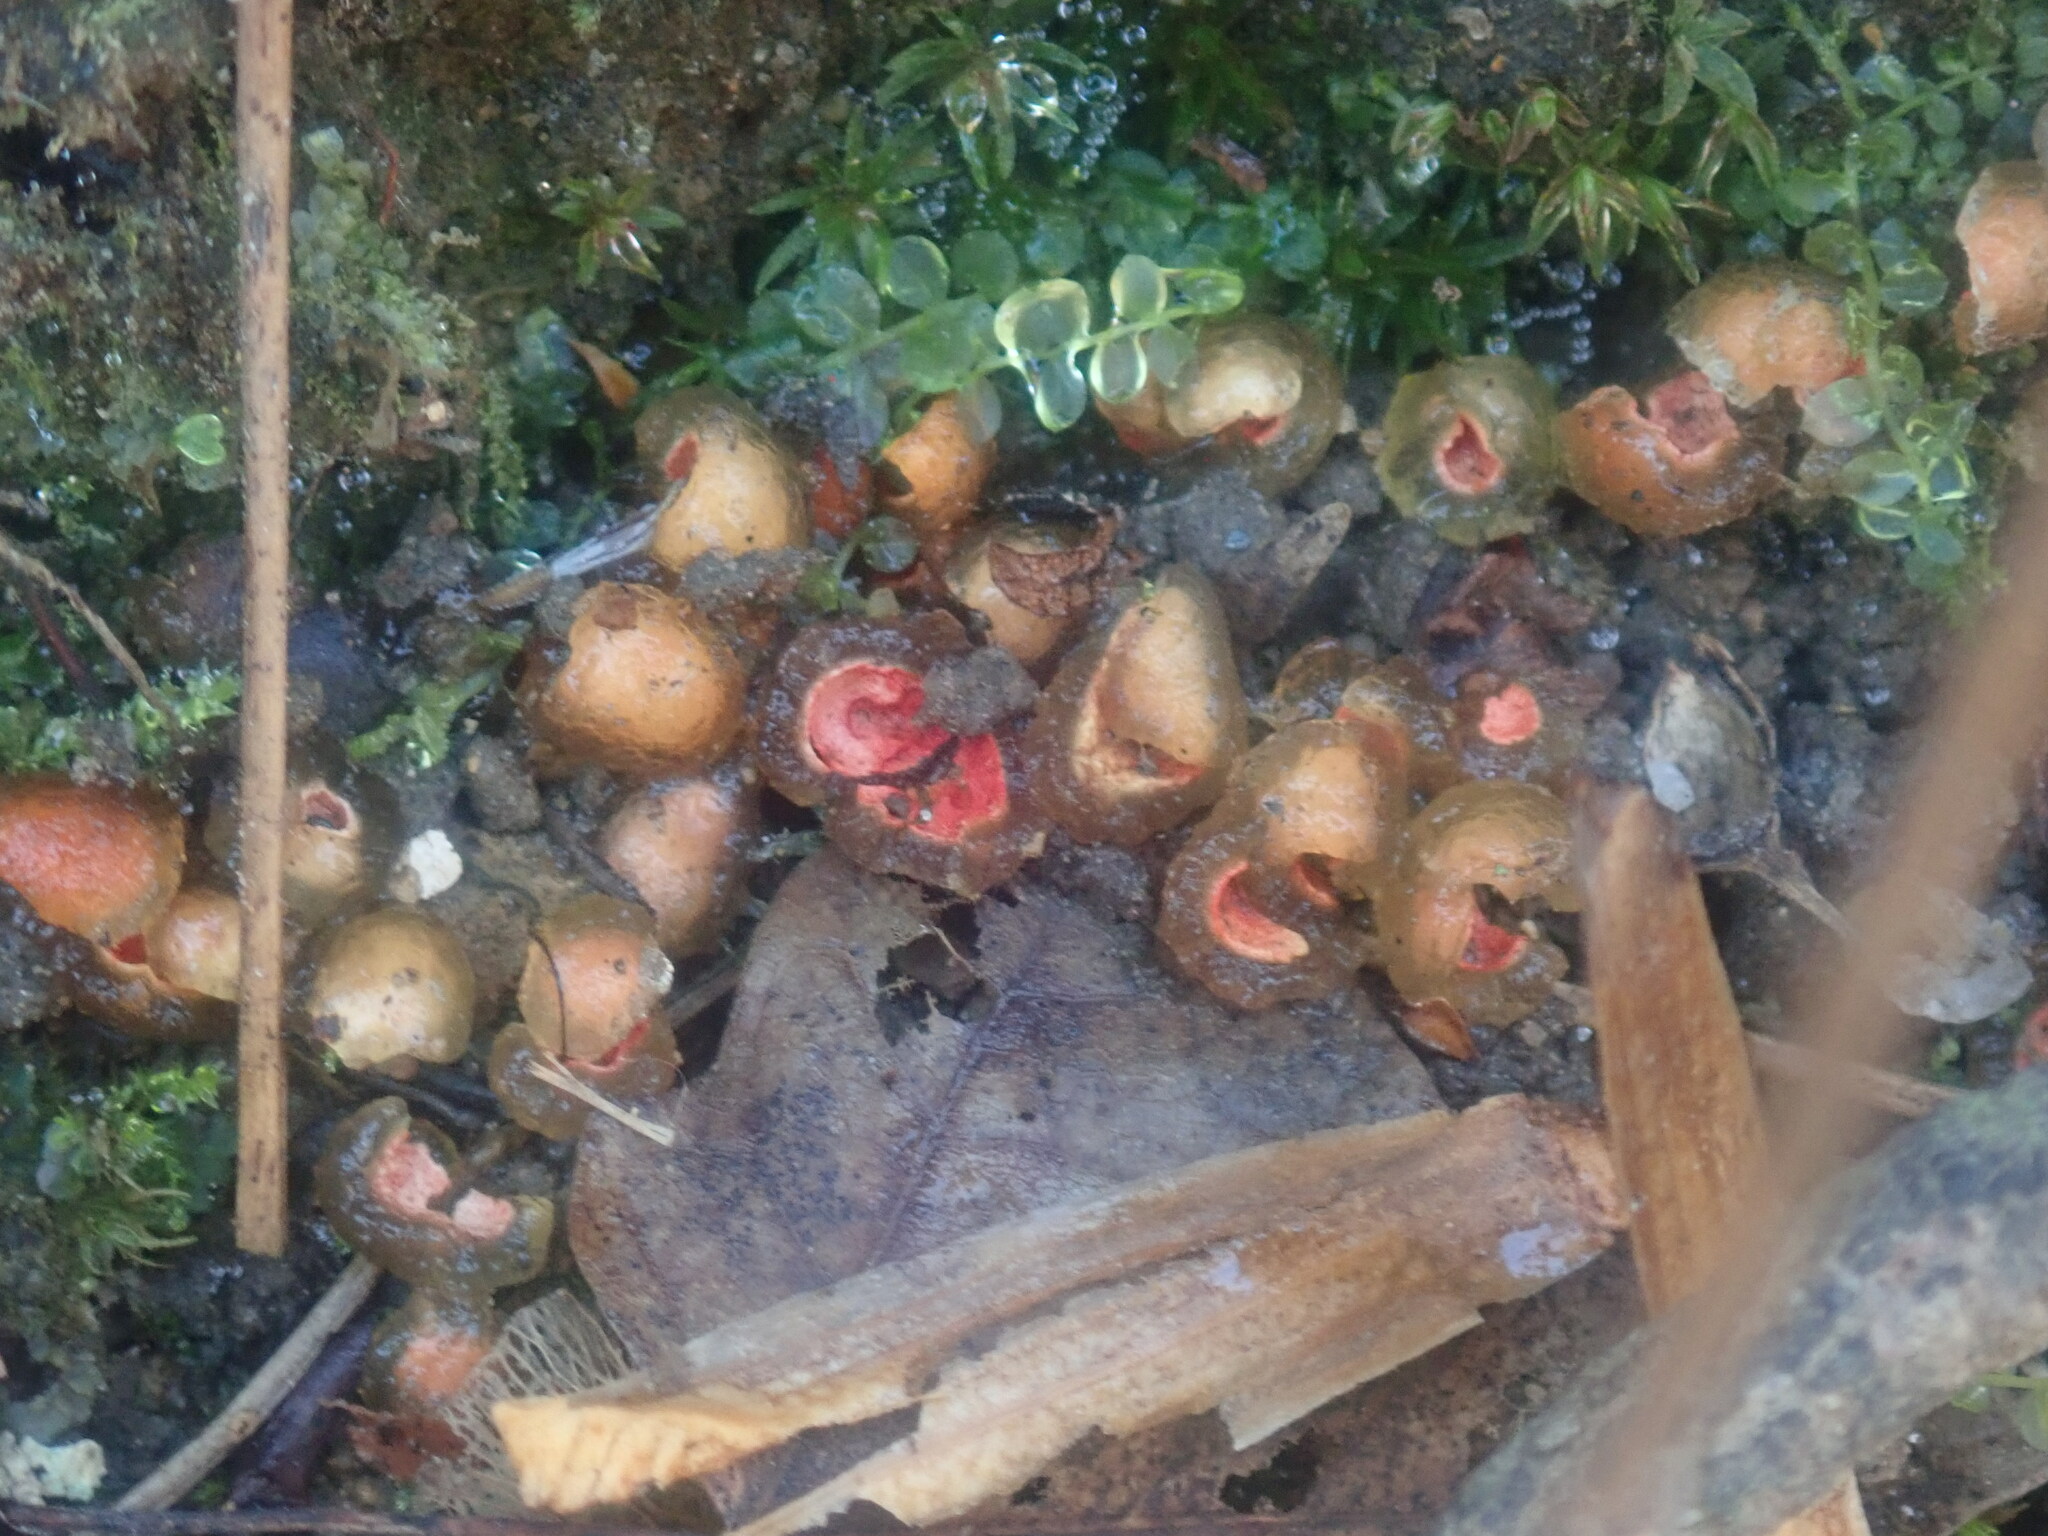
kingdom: Fungi
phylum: Basidiomycota
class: Agaricomycetes
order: Boletales
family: Calostomataceae
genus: Calostoma
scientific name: Calostoma cinnabarinum
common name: Stalked puffball-in-aspic
